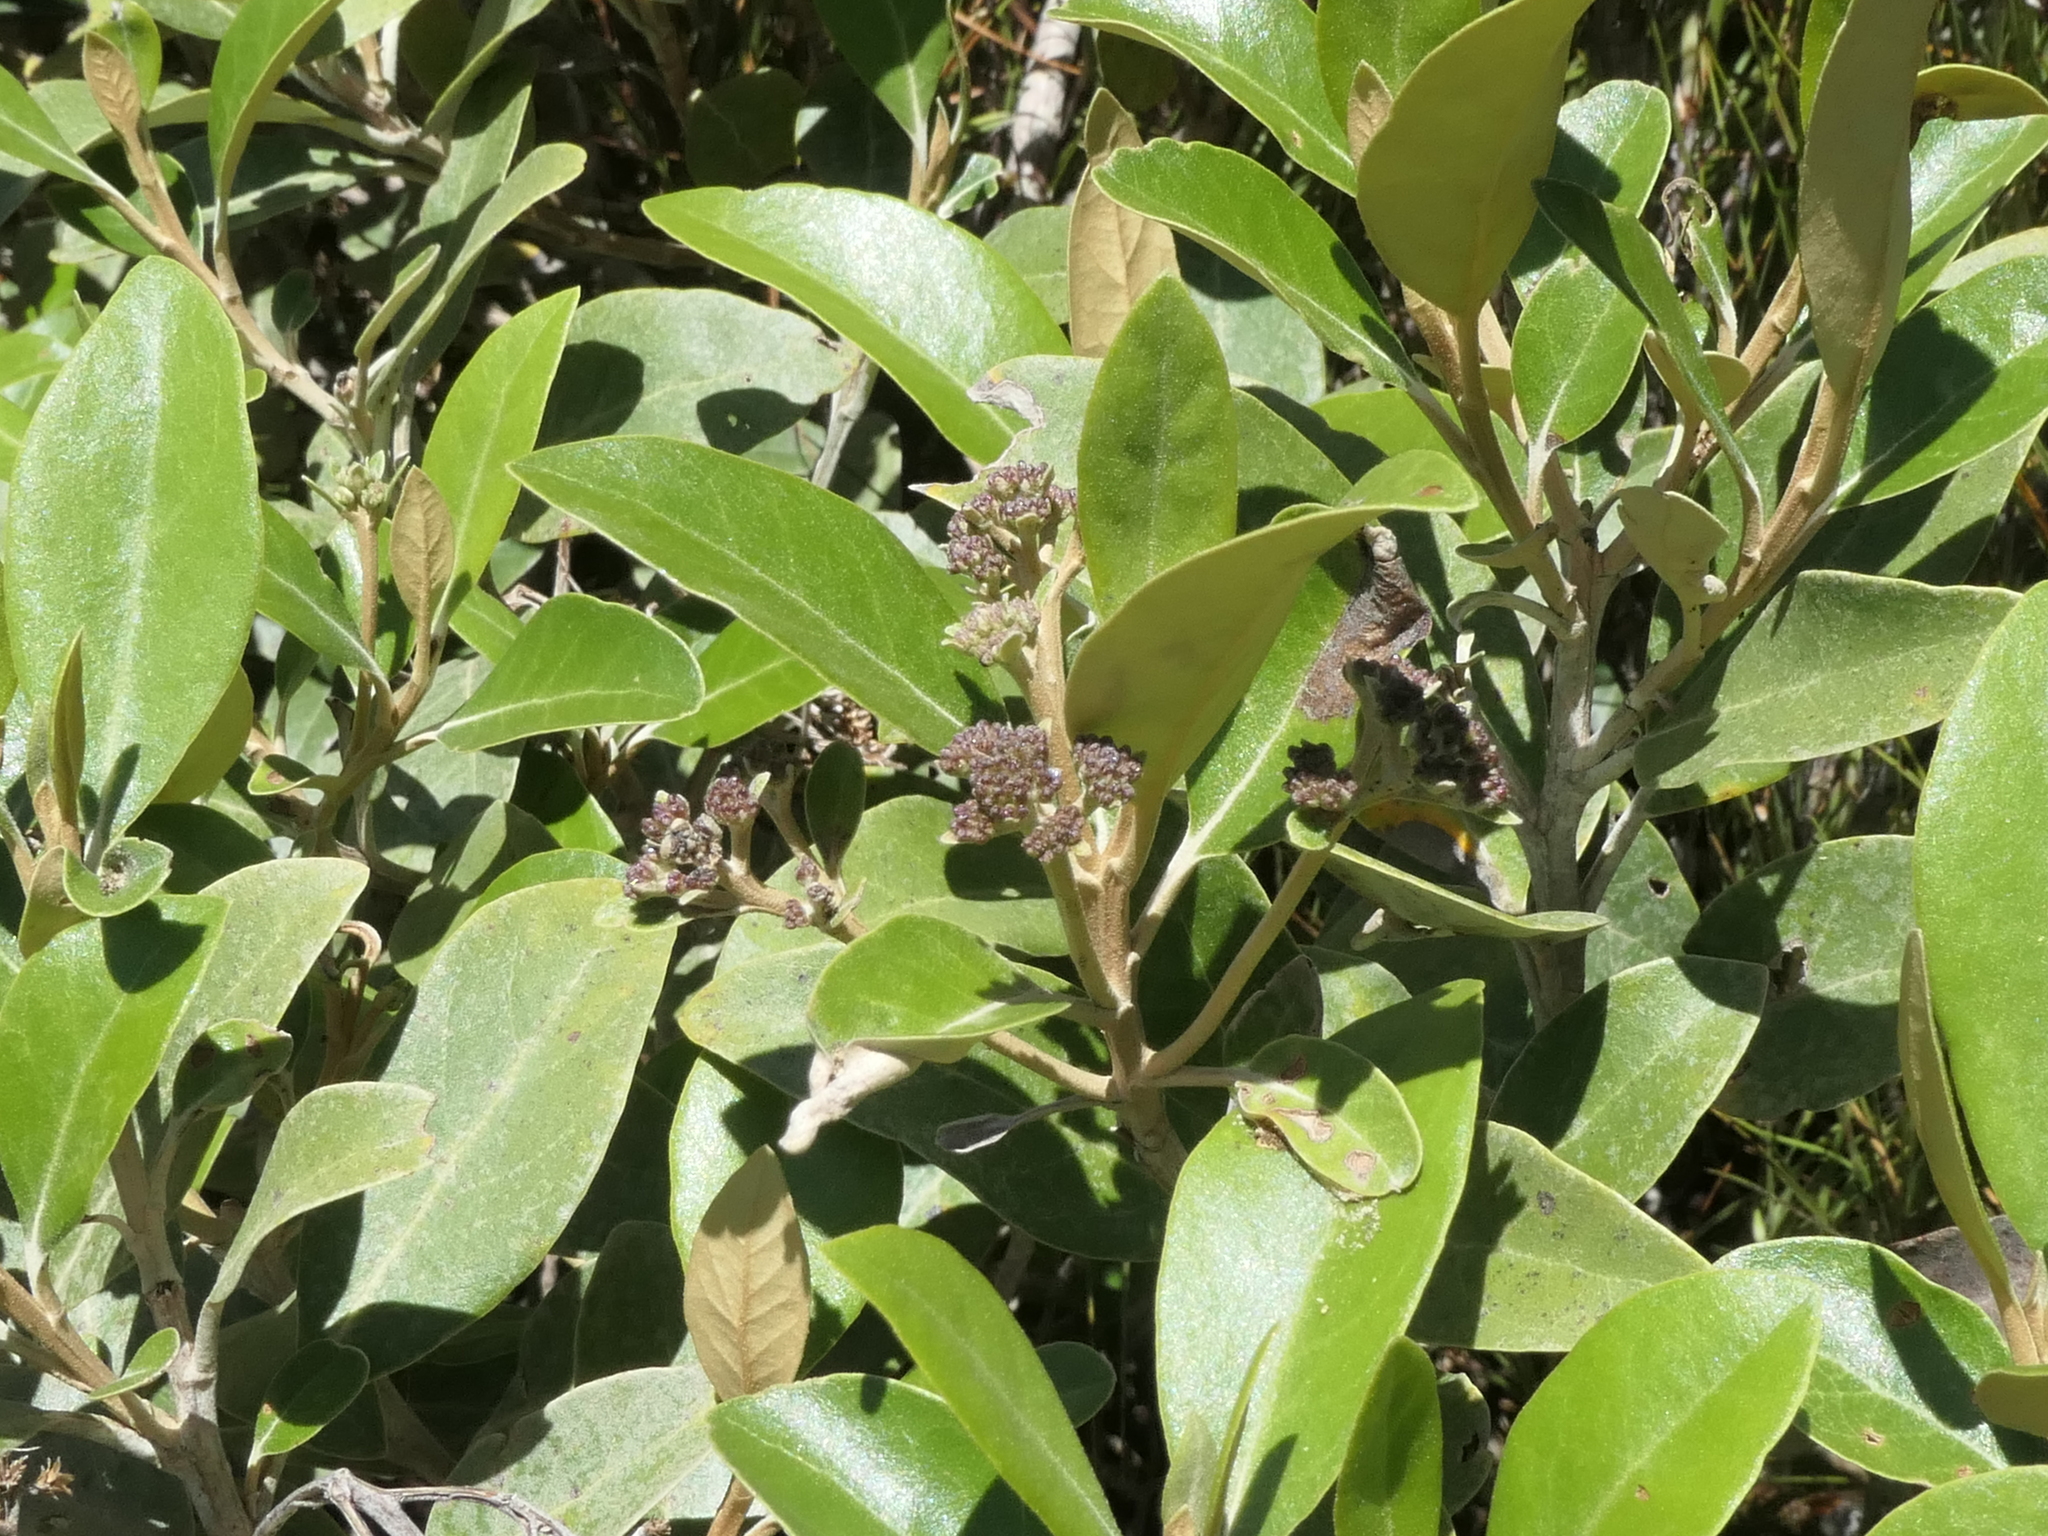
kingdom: Plantae
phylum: Tracheophyta
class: Magnoliopsida
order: Asterales
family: Asteraceae
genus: Olearia
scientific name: Olearia avicenniifolia
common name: Mangrove-leaf daisybush
